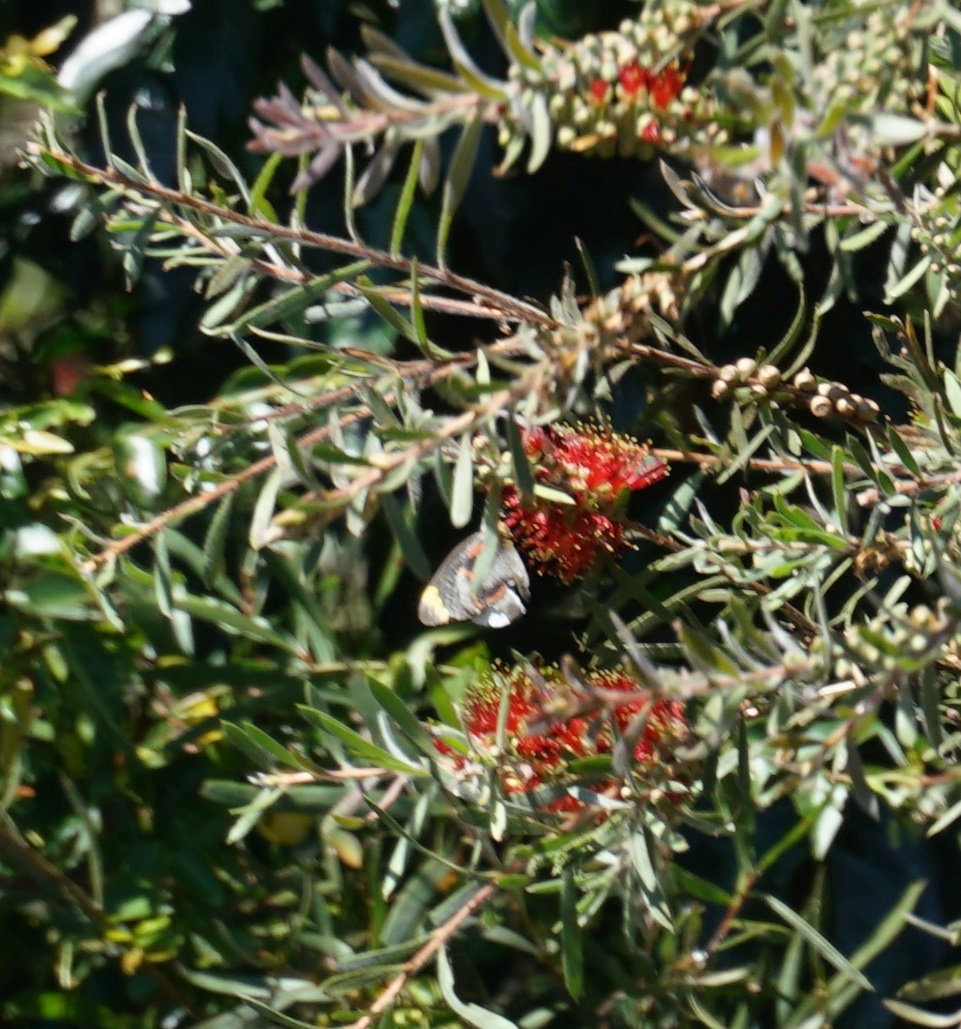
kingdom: Animalia
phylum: Arthropoda
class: Insecta
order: Lepidoptera
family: Pieridae
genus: Delias
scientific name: Delias nigrina
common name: Black jezebel
